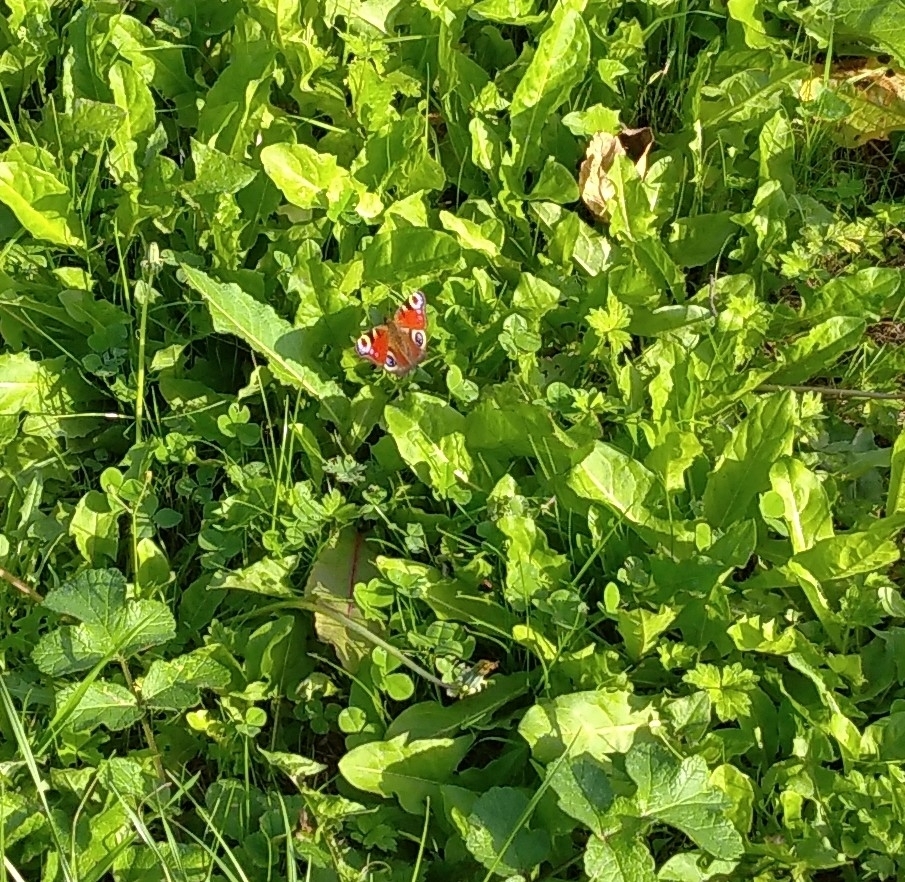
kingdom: Animalia
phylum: Arthropoda
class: Insecta
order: Lepidoptera
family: Nymphalidae
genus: Aglais
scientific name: Aglais io
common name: Peacock
